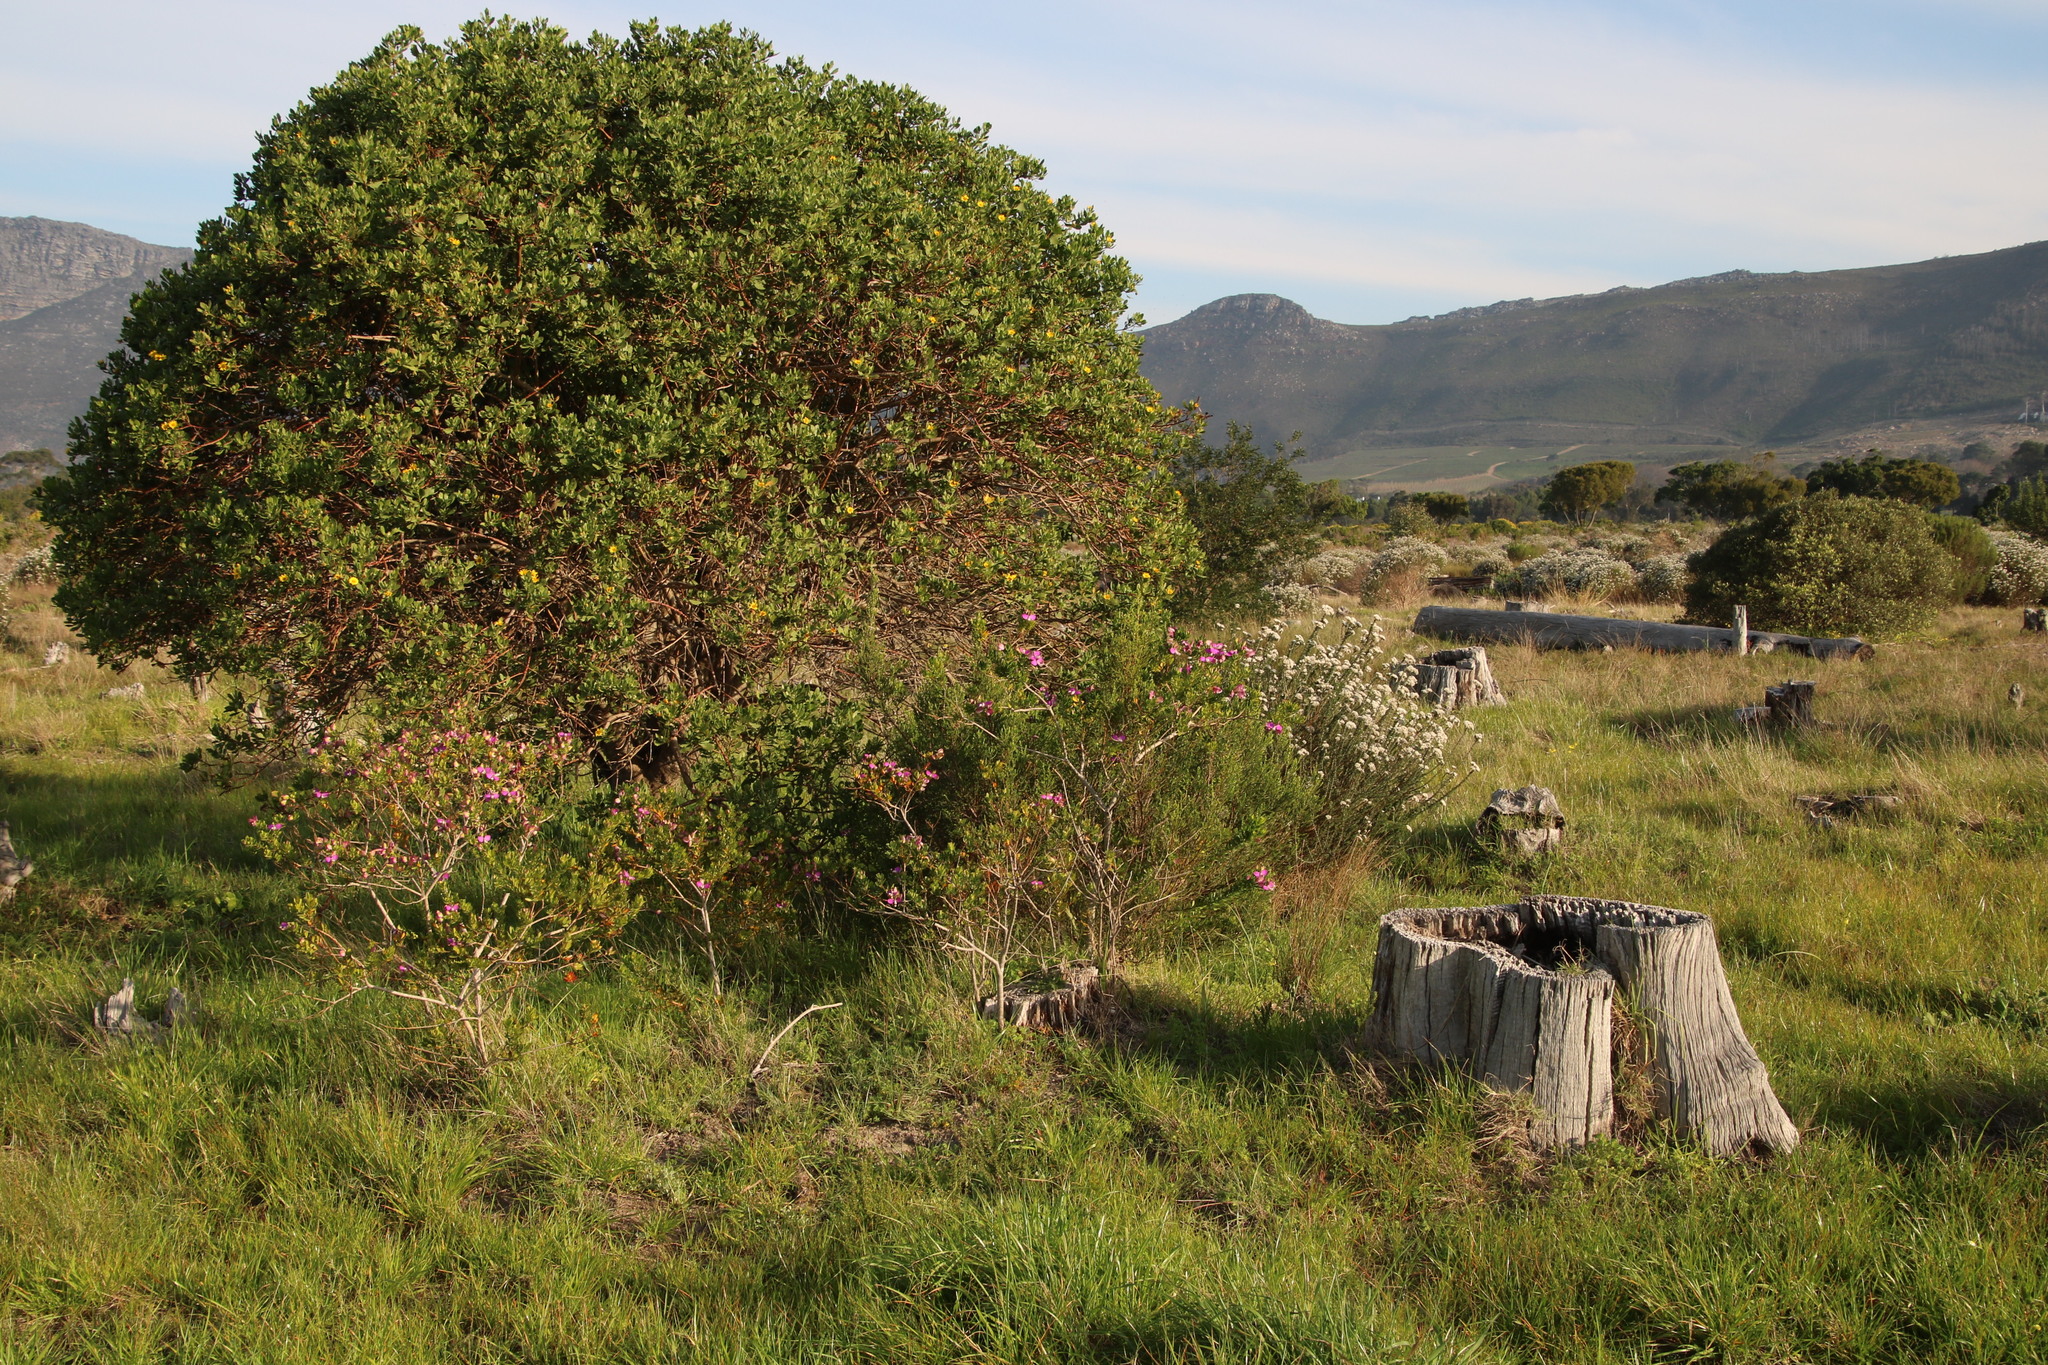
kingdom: Plantae
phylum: Tracheophyta
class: Magnoliopsida
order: Fabales
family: Polygalaceae
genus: Polygala
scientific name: Polygala myrtifolia
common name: Myrtle-leaf milkwort
